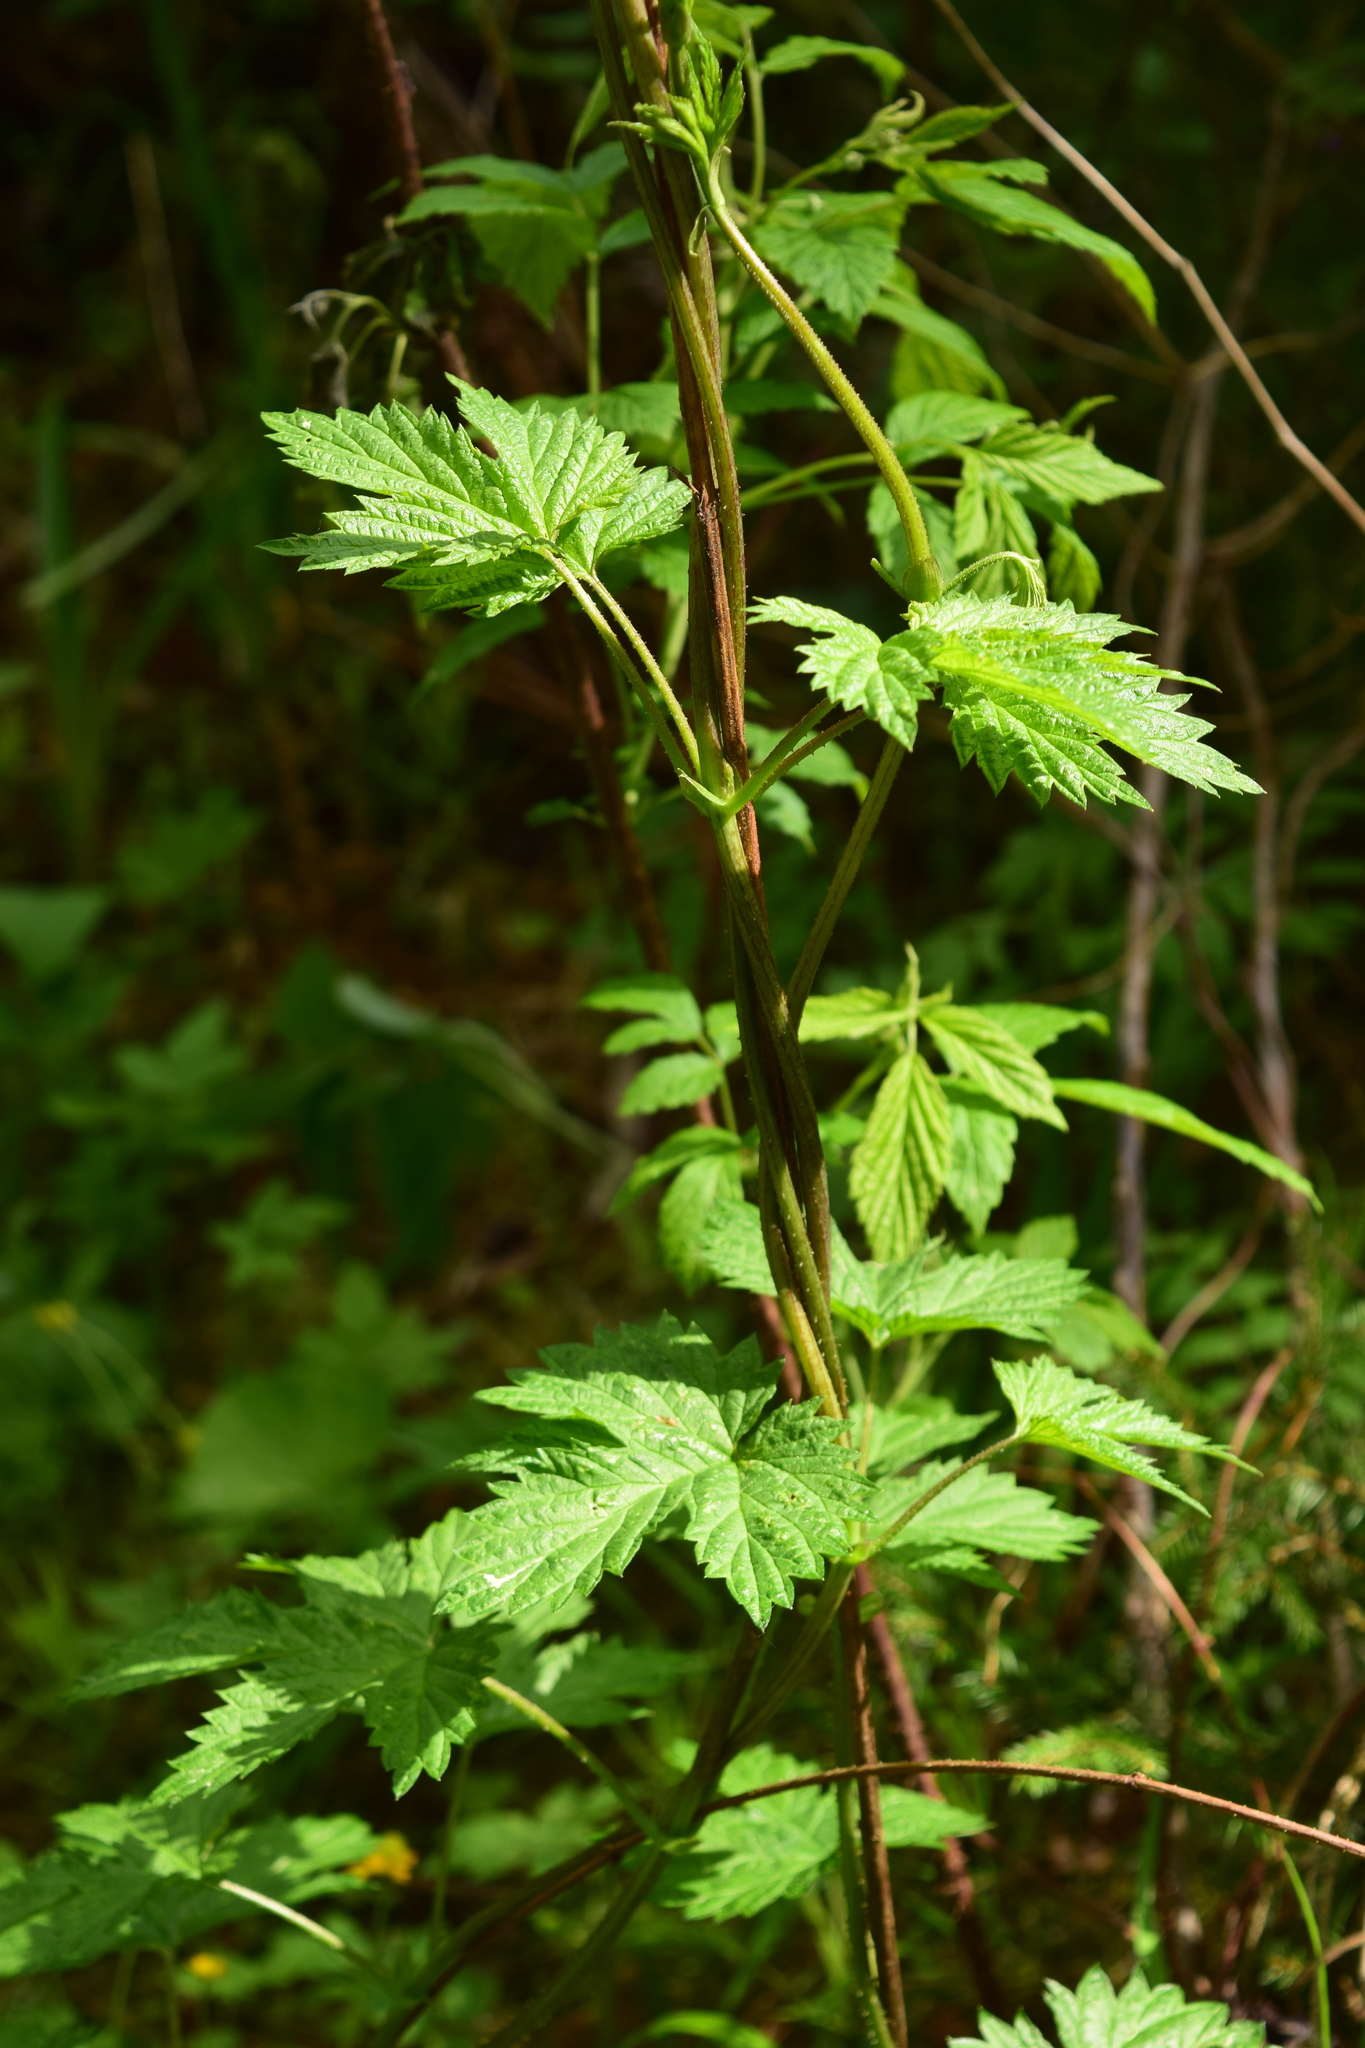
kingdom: Plantae
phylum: Tracheophyta
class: Magnoliopsida
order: Rosales
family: Cannabaceae
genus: Humulus
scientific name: Humulus lupulus
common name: Hop
